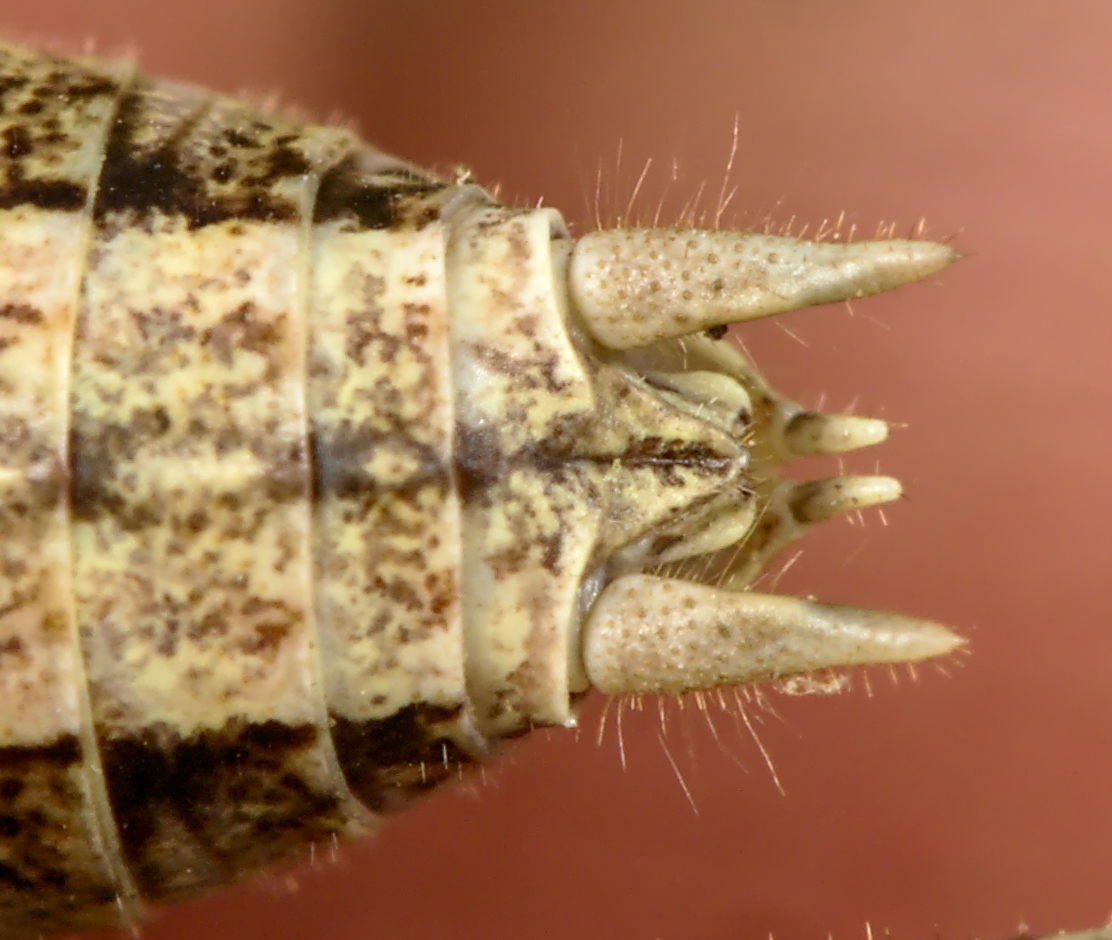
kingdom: Animalia
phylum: Arthropoda
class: Insecta
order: Orthoptera
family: Tettigoniidae
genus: Yersinella
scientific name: Yersinella beybienkoi
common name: Bei-bienko's bush-cricket
